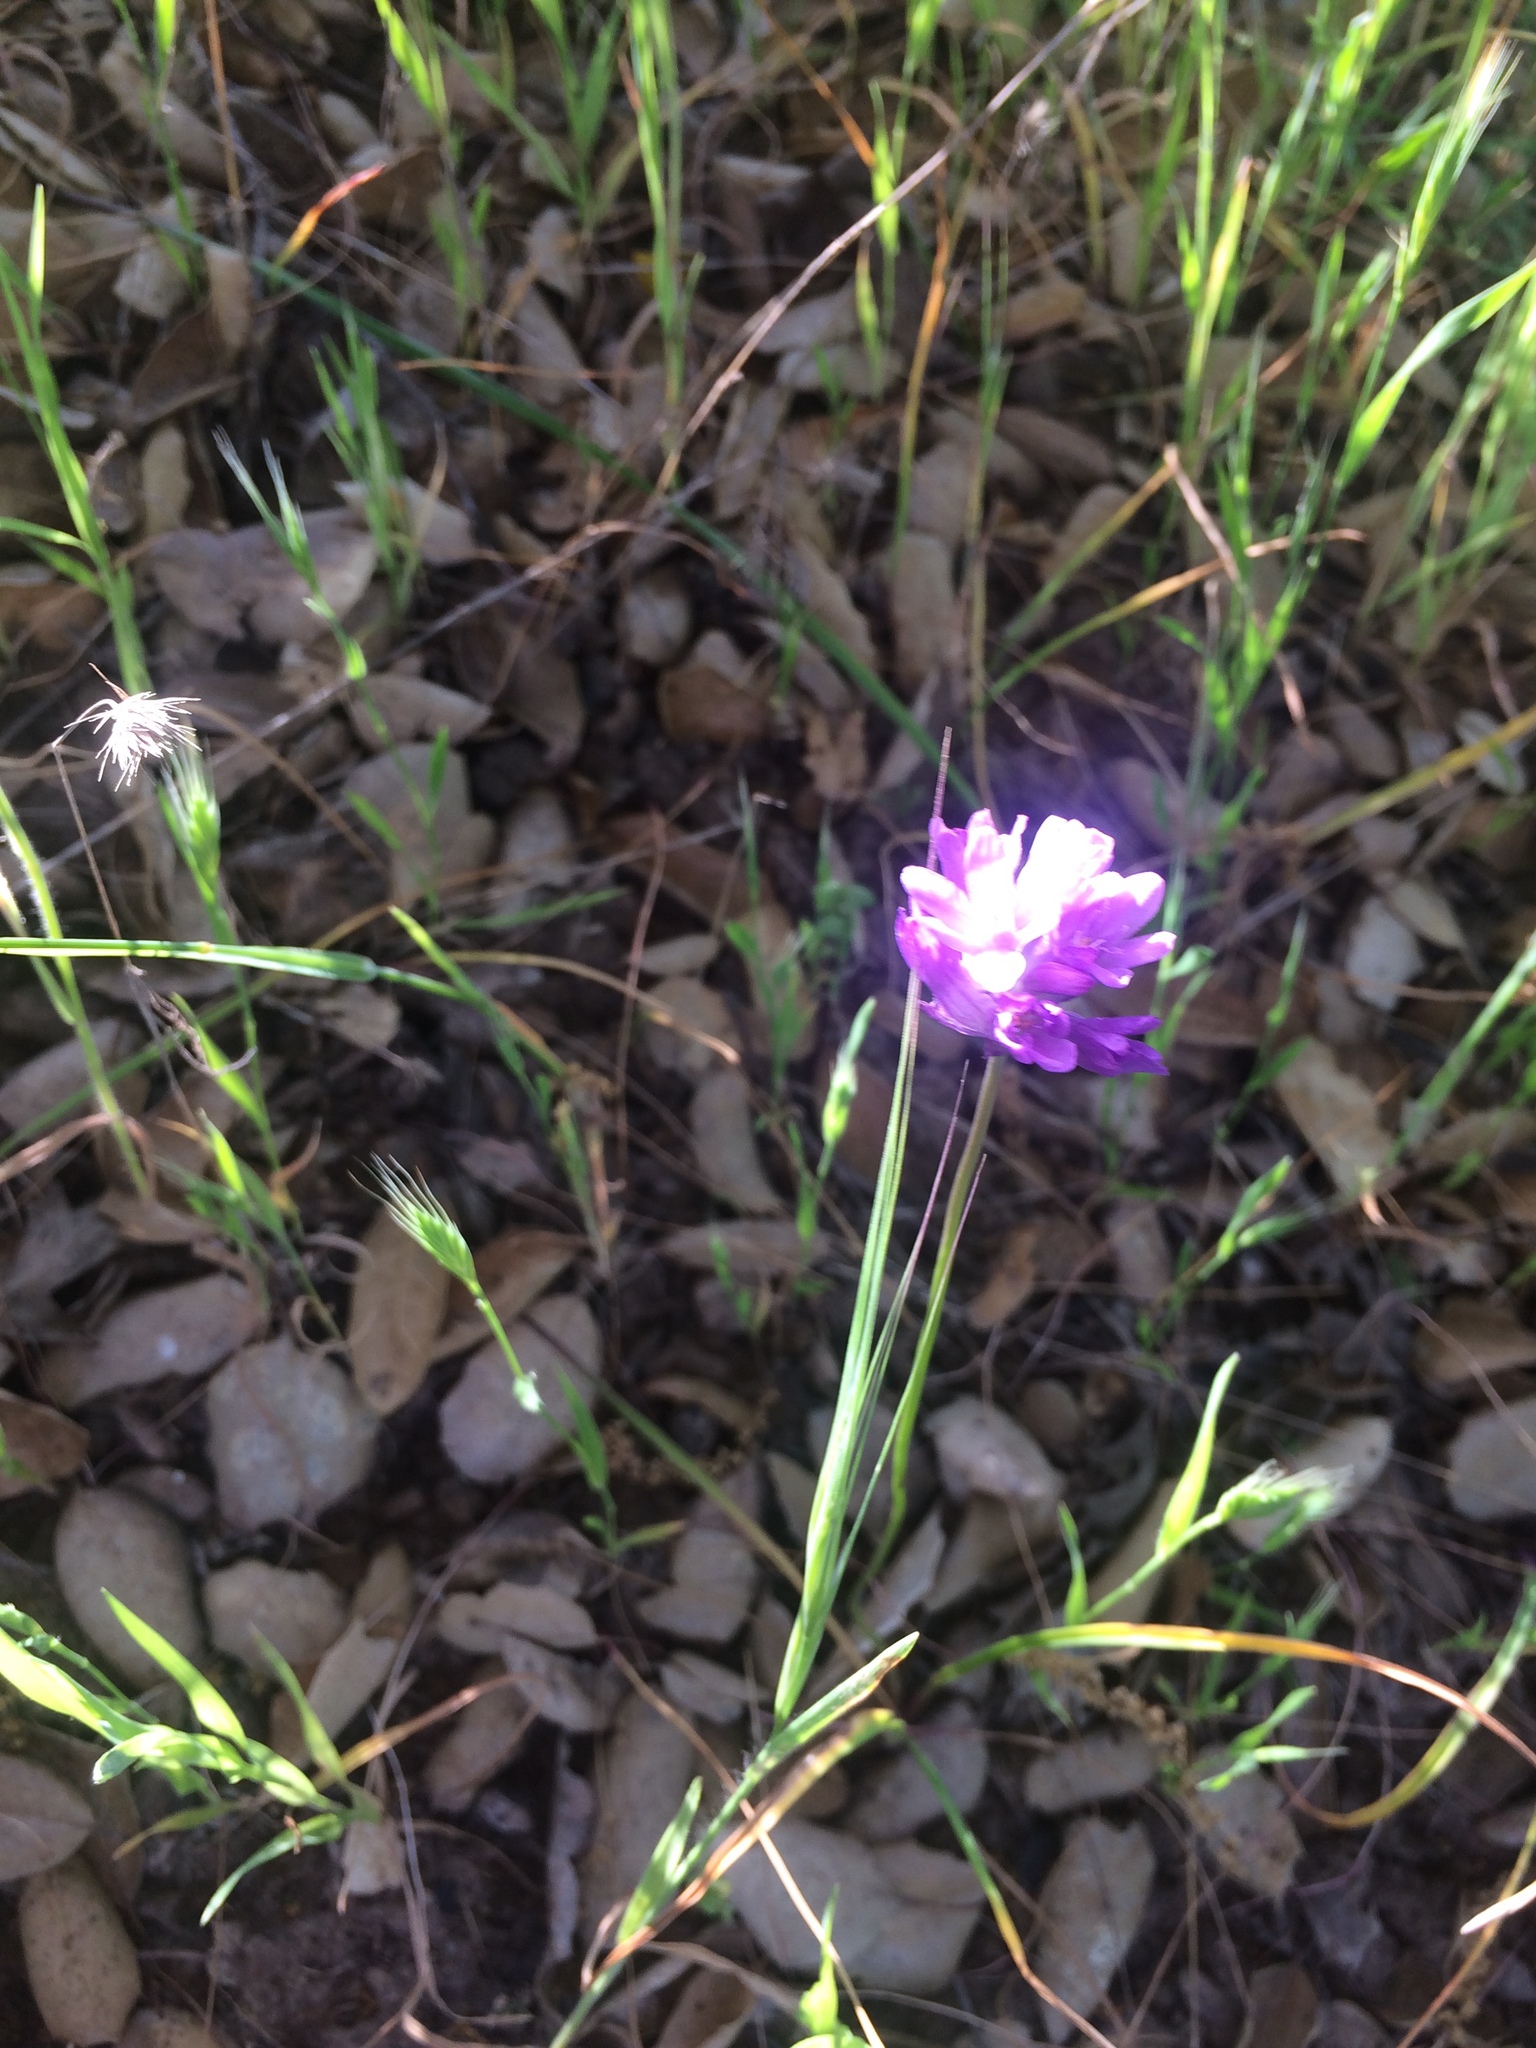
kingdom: Plantae
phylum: Tracheophyta
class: Liliopsida
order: Asparagales
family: Asparagaceae
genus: Dichelostemma
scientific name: Dichelostemma congestum
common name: Fork-tooth ookow
